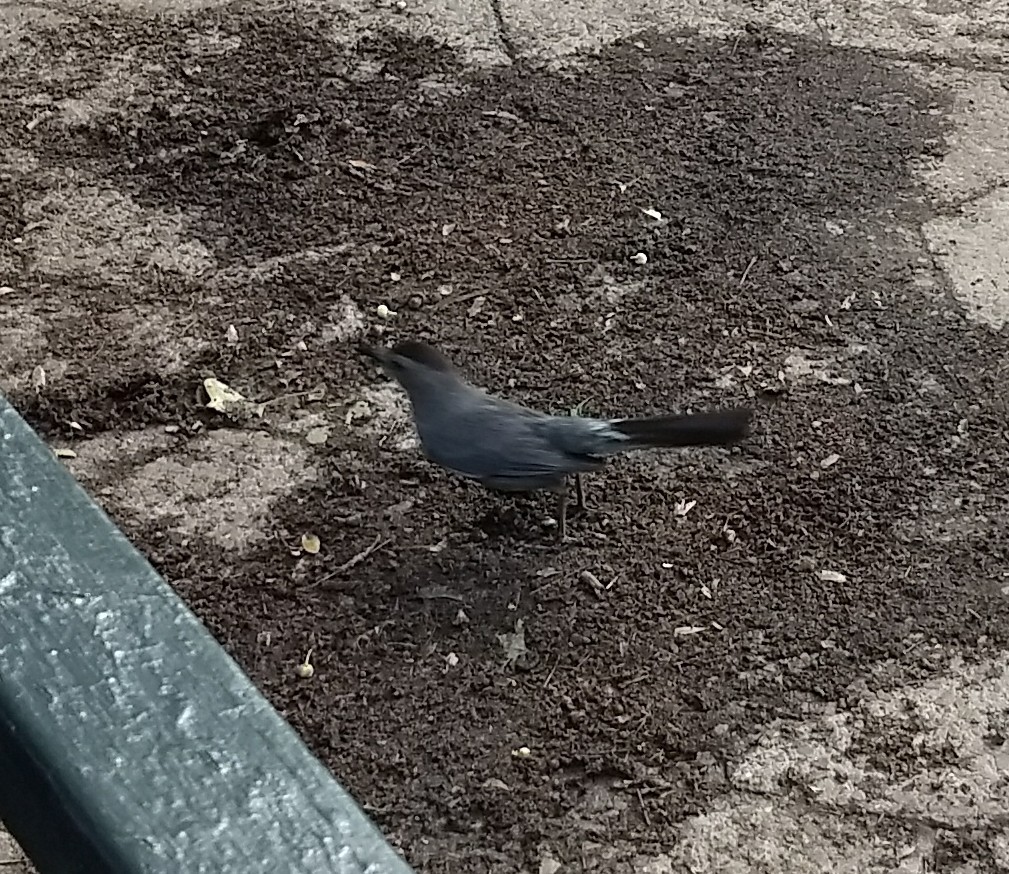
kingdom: Animalia
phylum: Chordata
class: Aves
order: Passeriformes
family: Mimidae
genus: Dumetella
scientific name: Dumetella carolinensis
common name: Gray catbird
